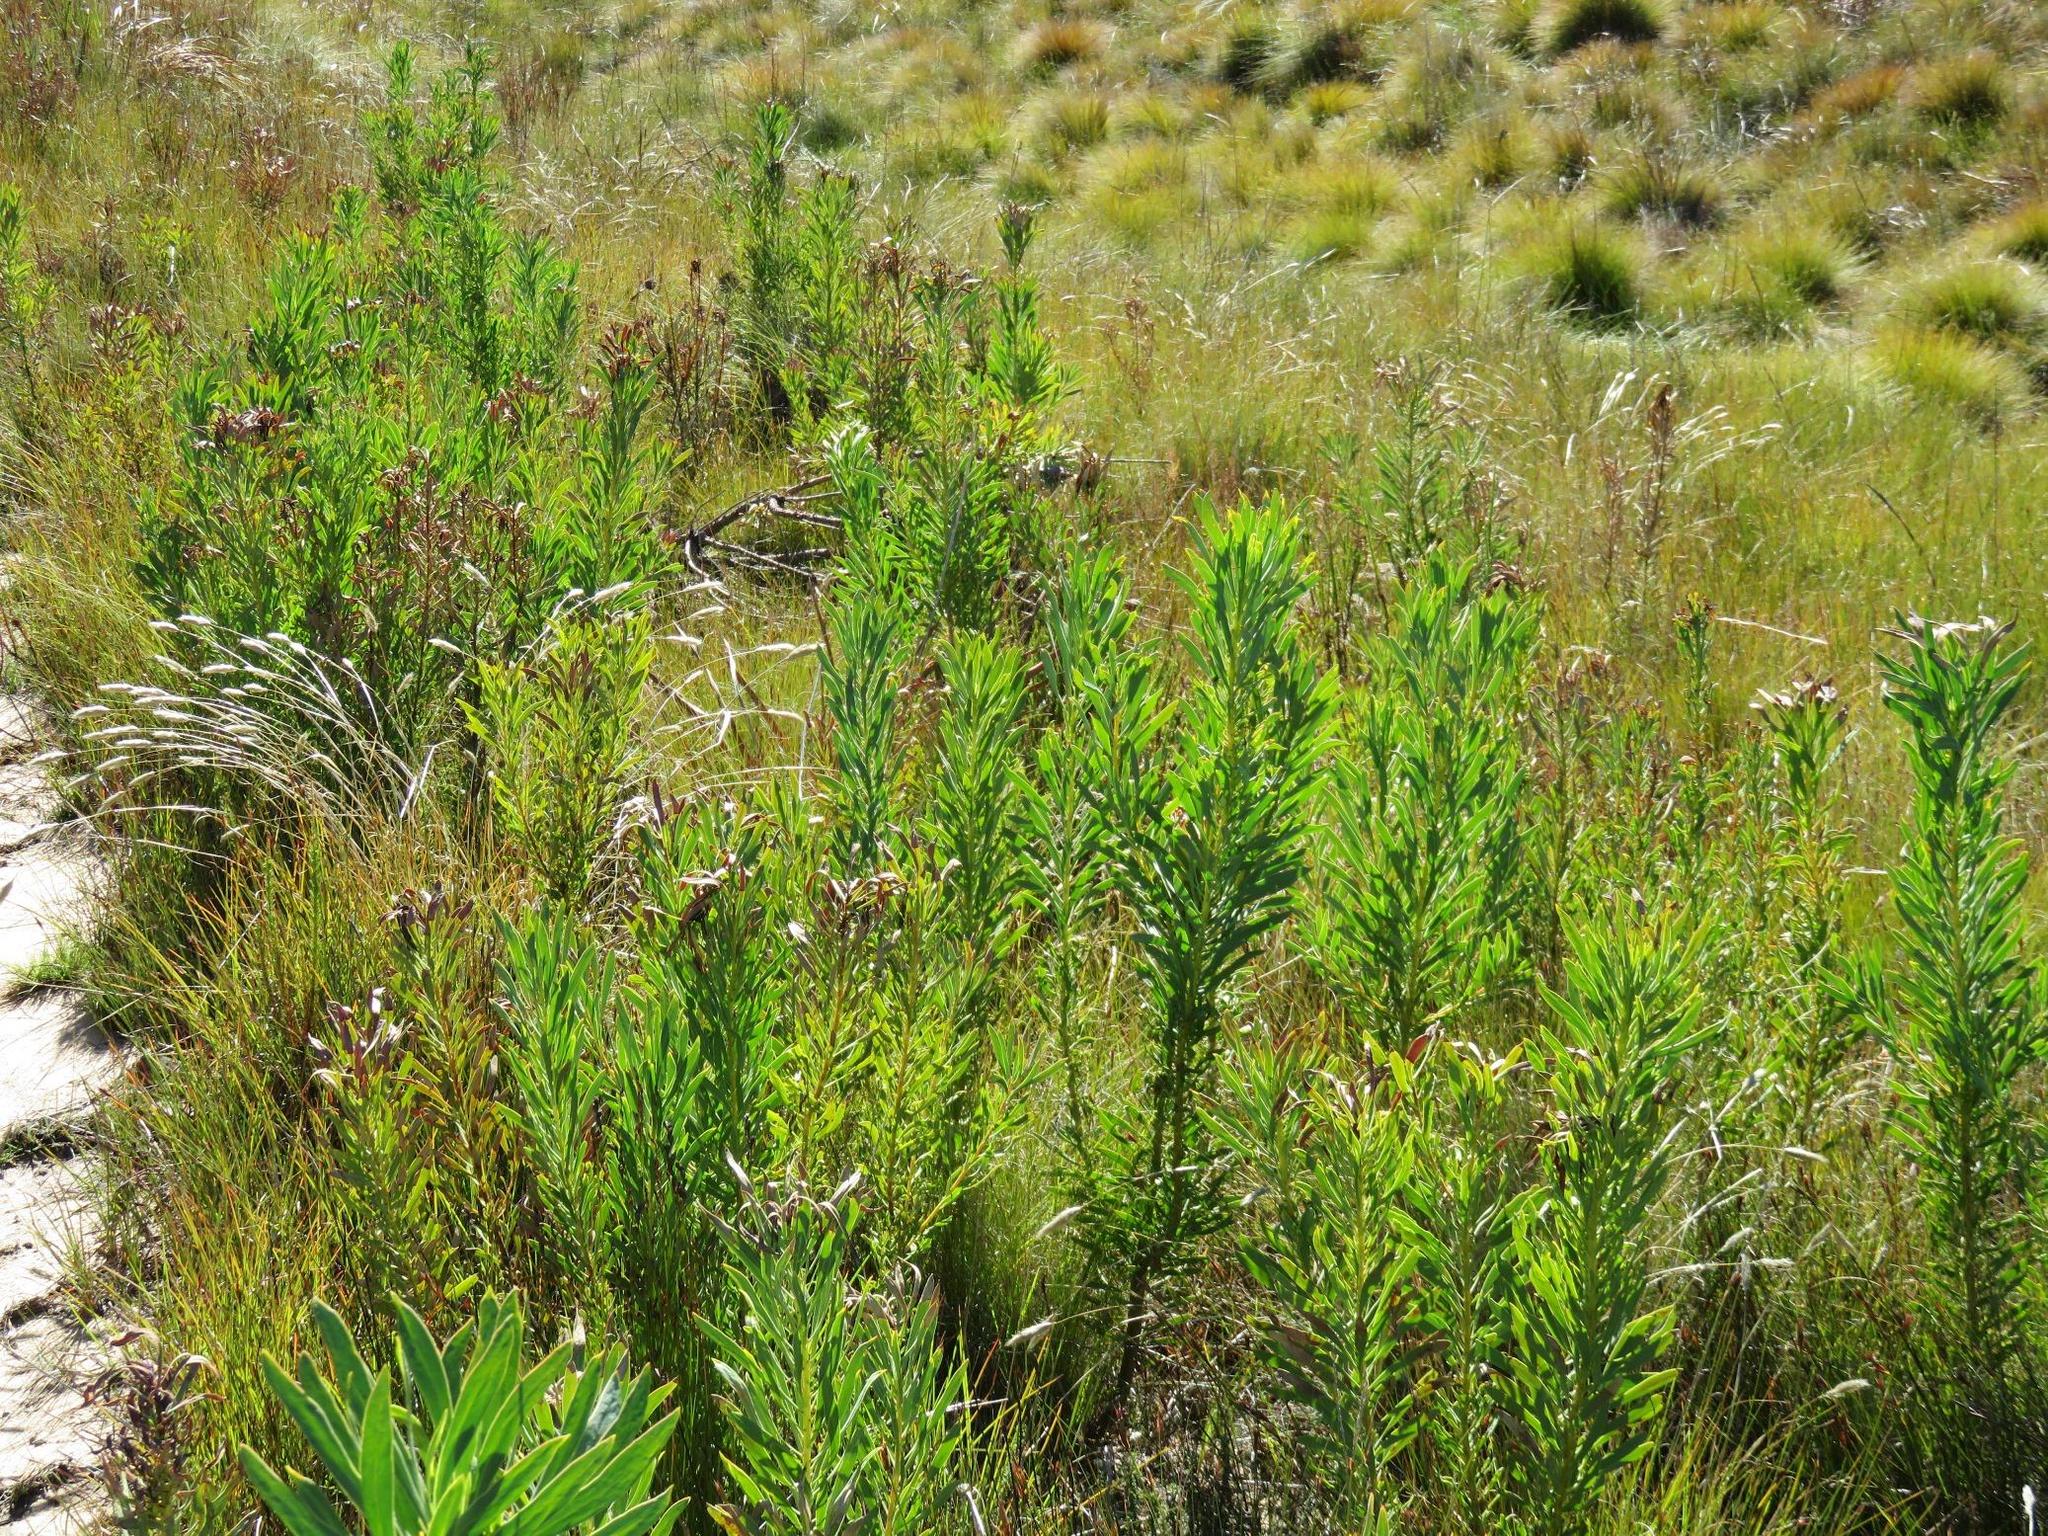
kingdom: Plantae
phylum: Tracheophyta
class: Magnoliopsida
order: Proteales
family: Proteaceae
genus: Protea
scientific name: Protea repens
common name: Sugarbush
